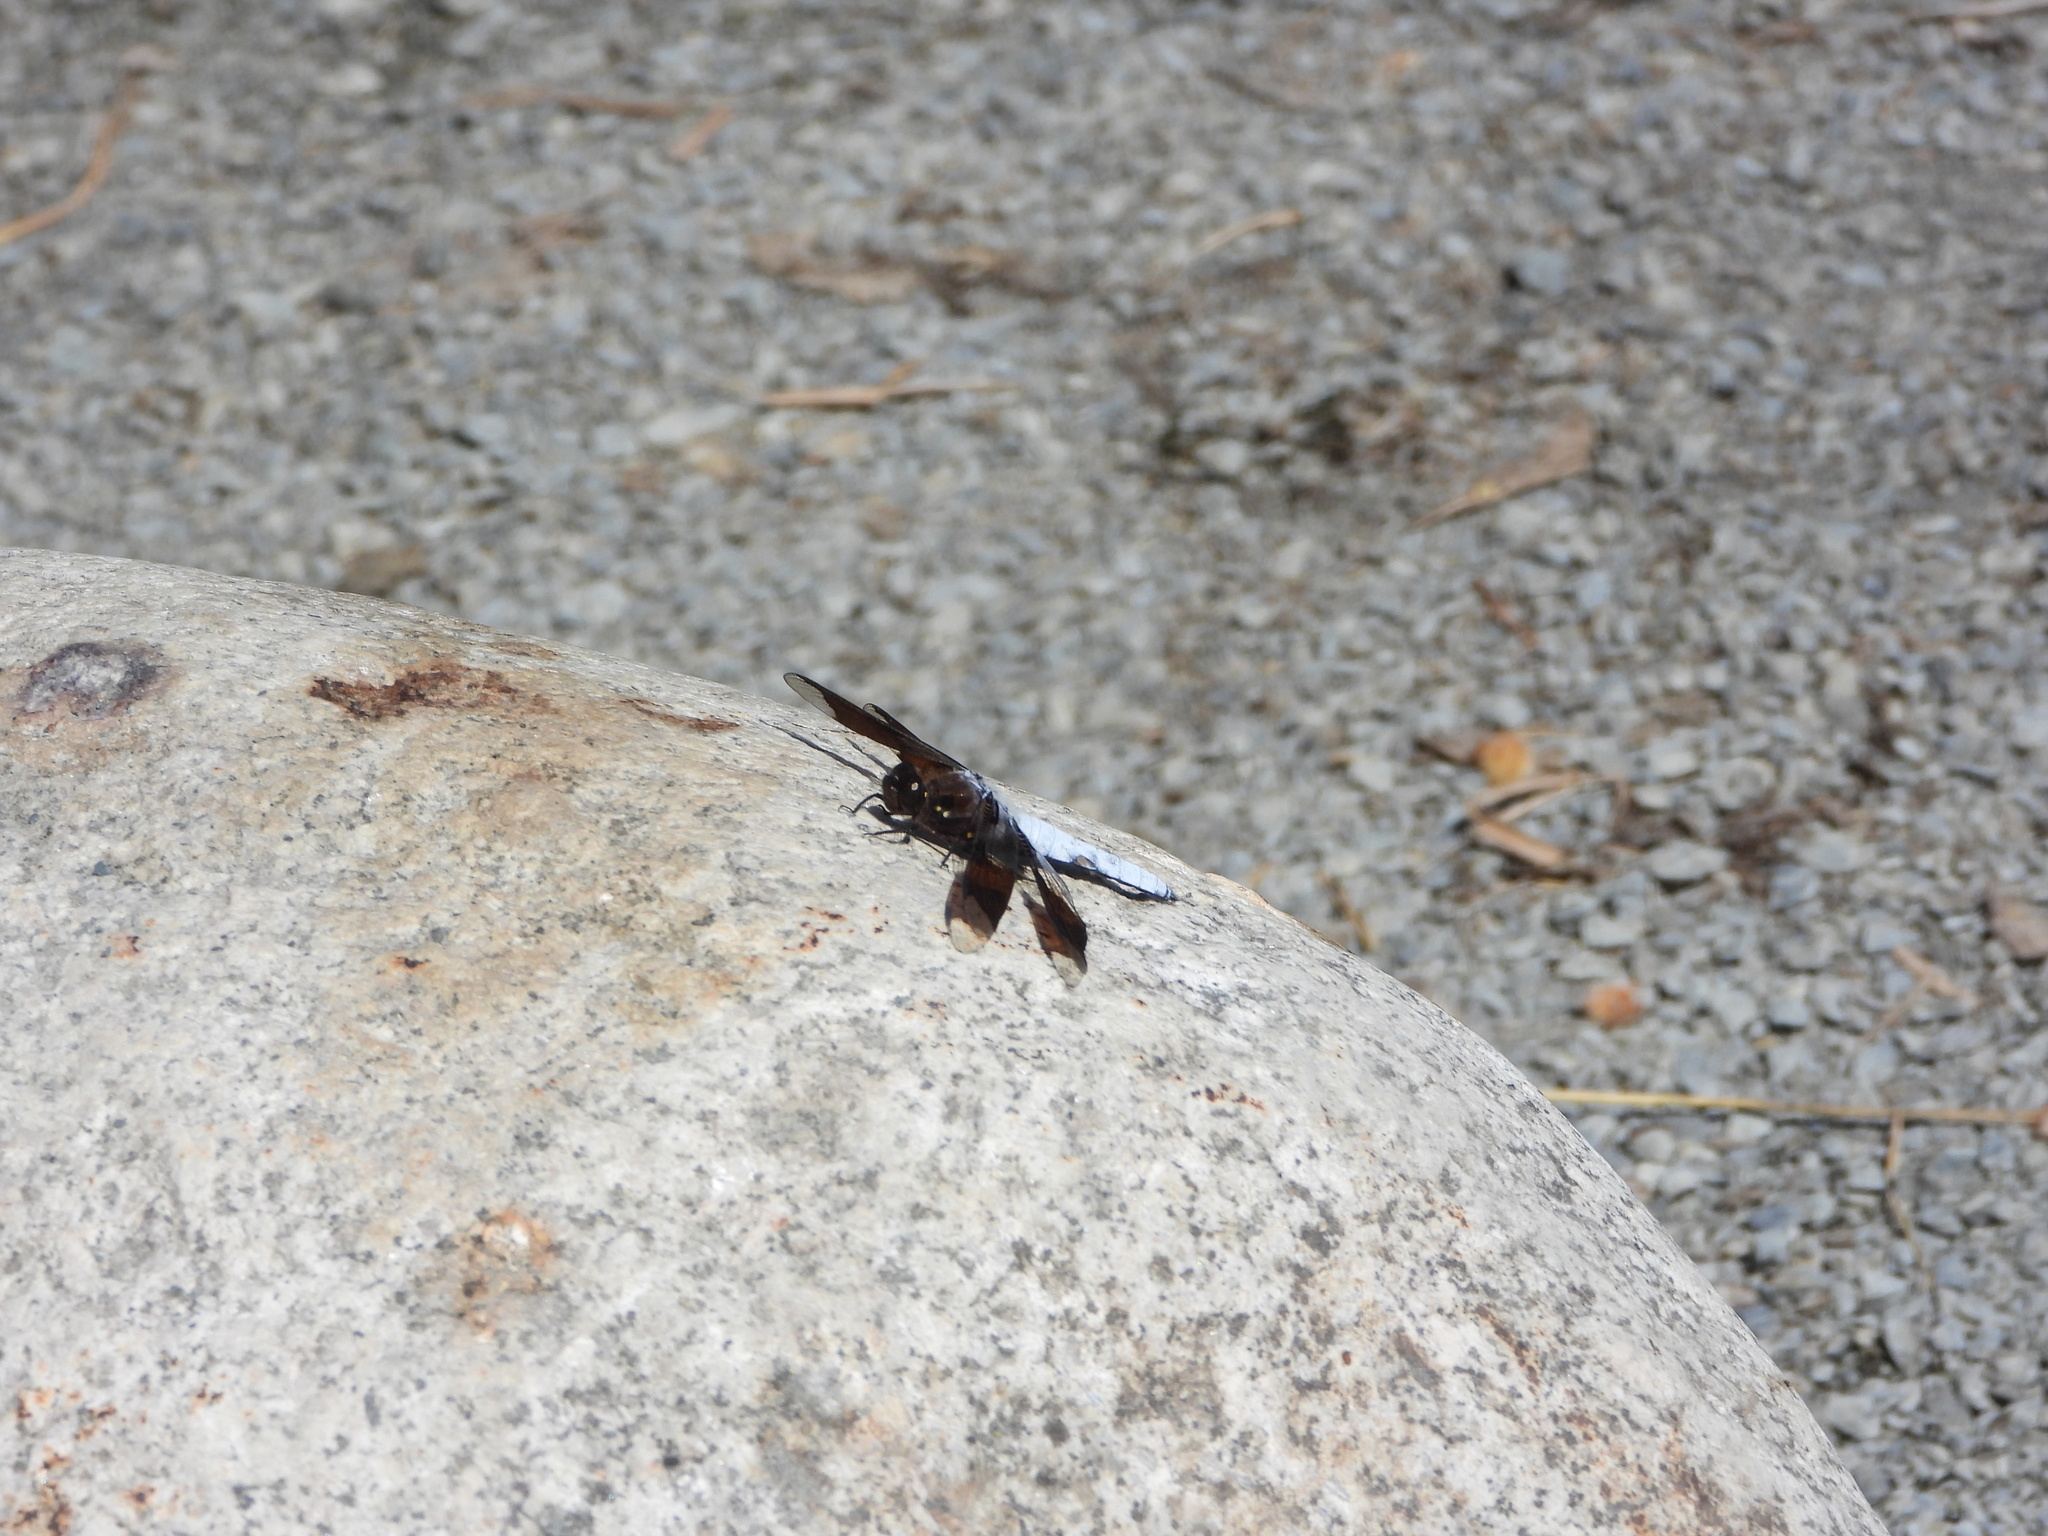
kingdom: Animalia
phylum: Arthropoda
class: Insecta
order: Odonata
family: Libellulidae
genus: Plathemis
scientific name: Plathemis lydia
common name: Common whitetail
